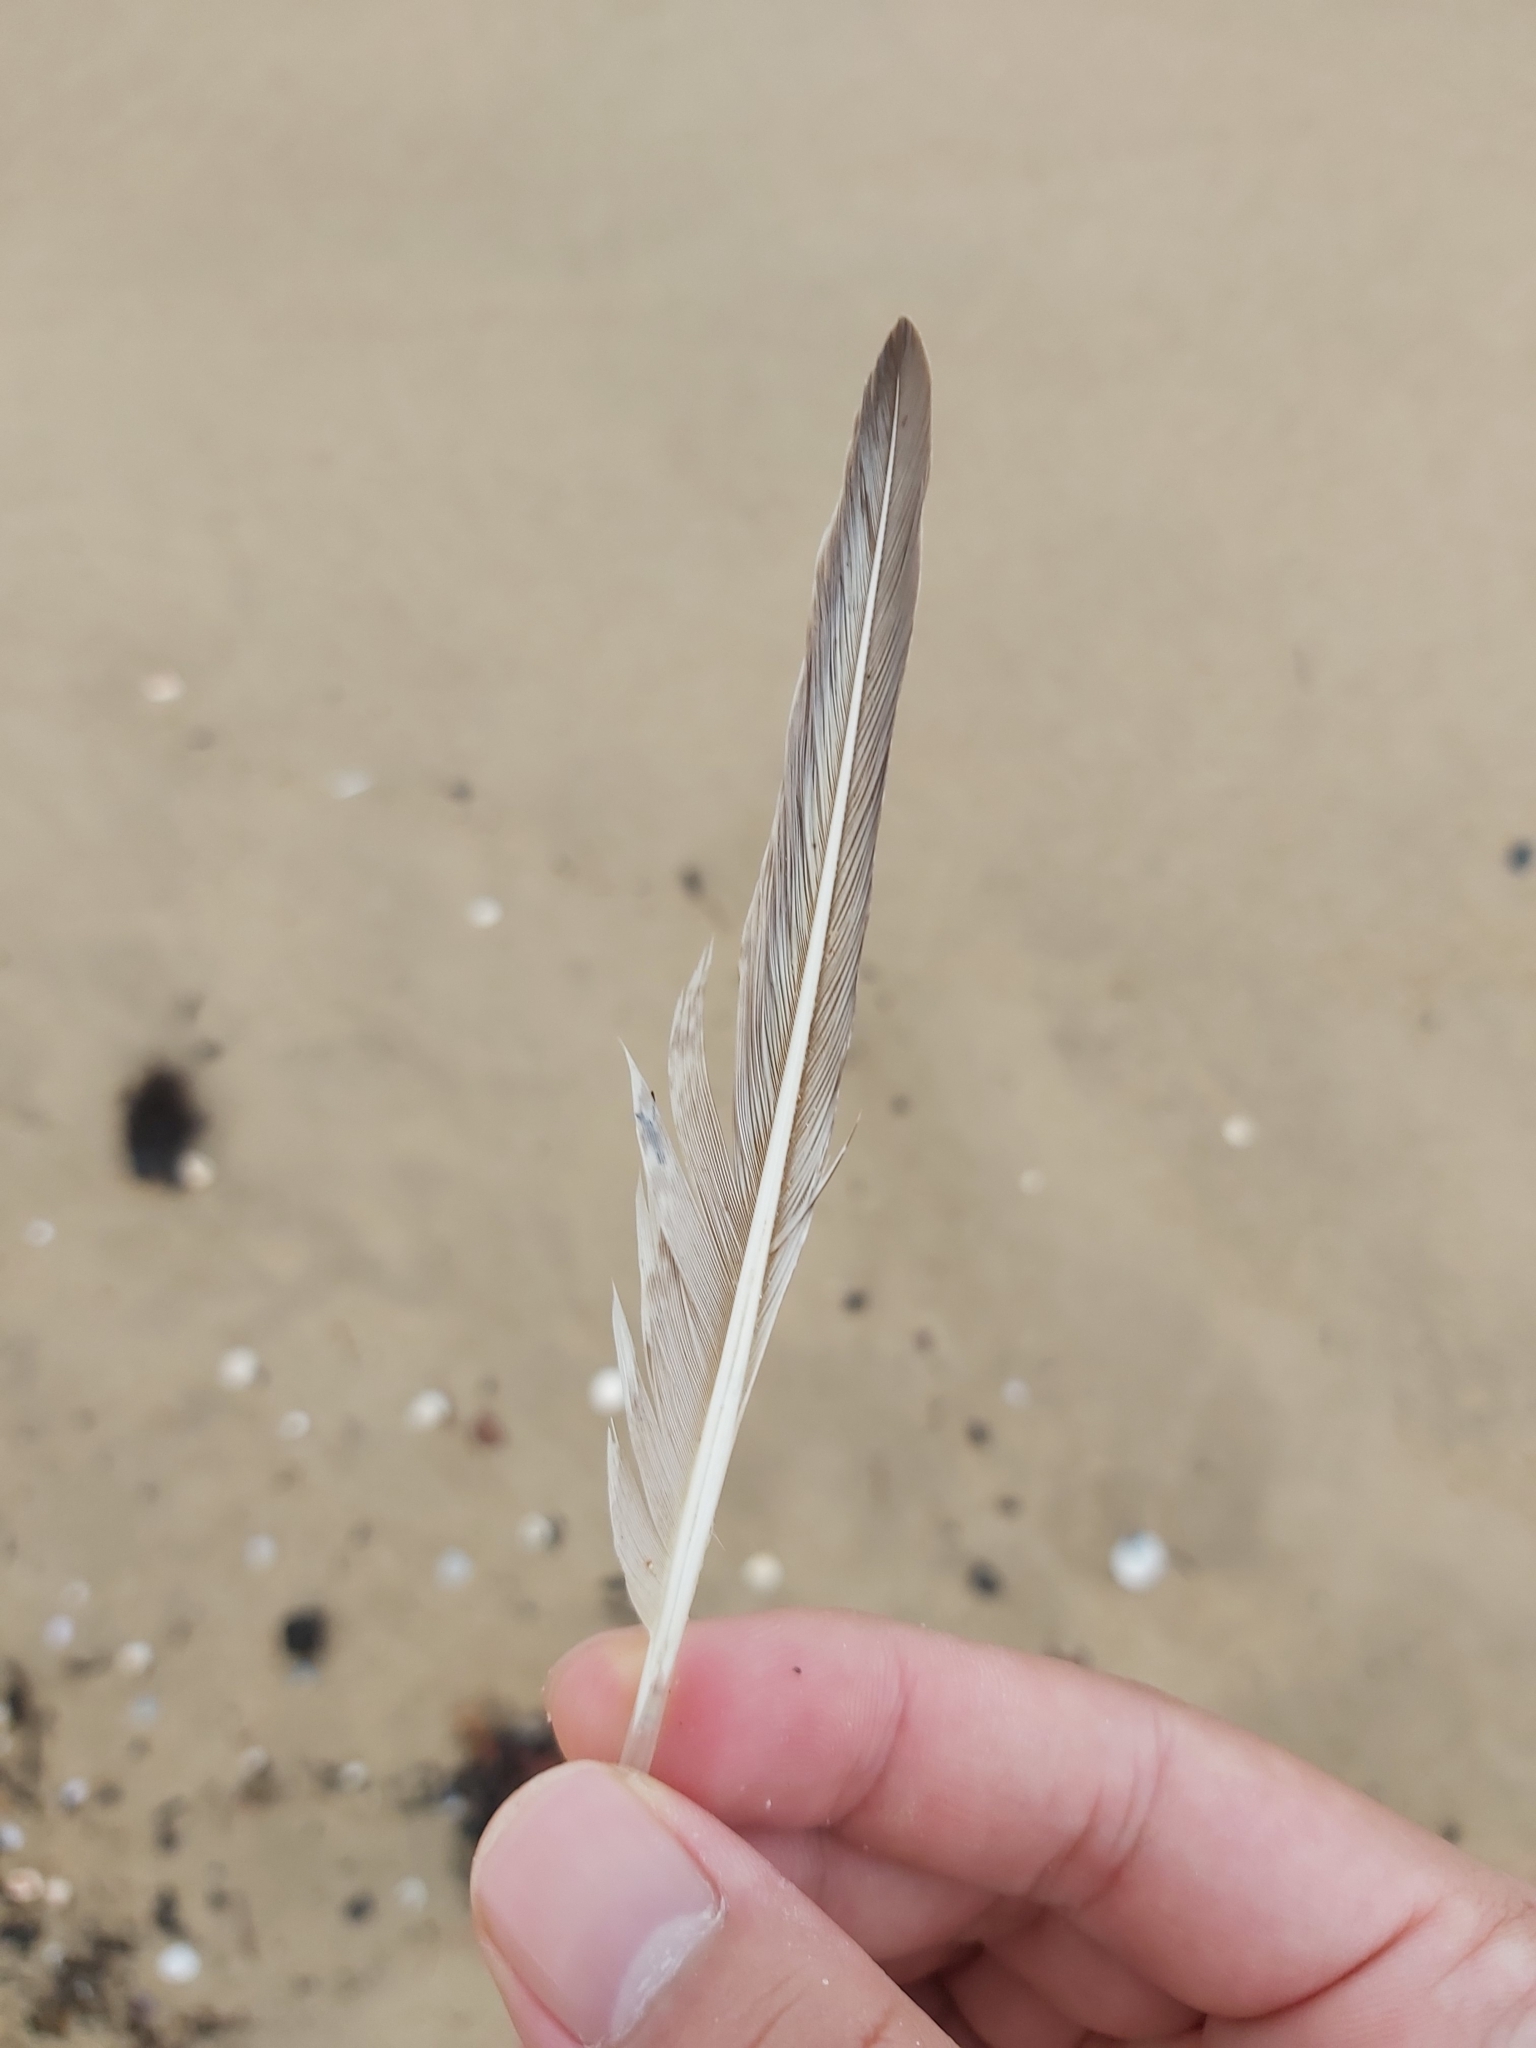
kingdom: Animalia
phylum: Chordata
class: Aves
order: Charadriiformes
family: Scolopacidae
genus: Limosa
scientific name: Limosa lapponica
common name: Bar-tailed godwit
